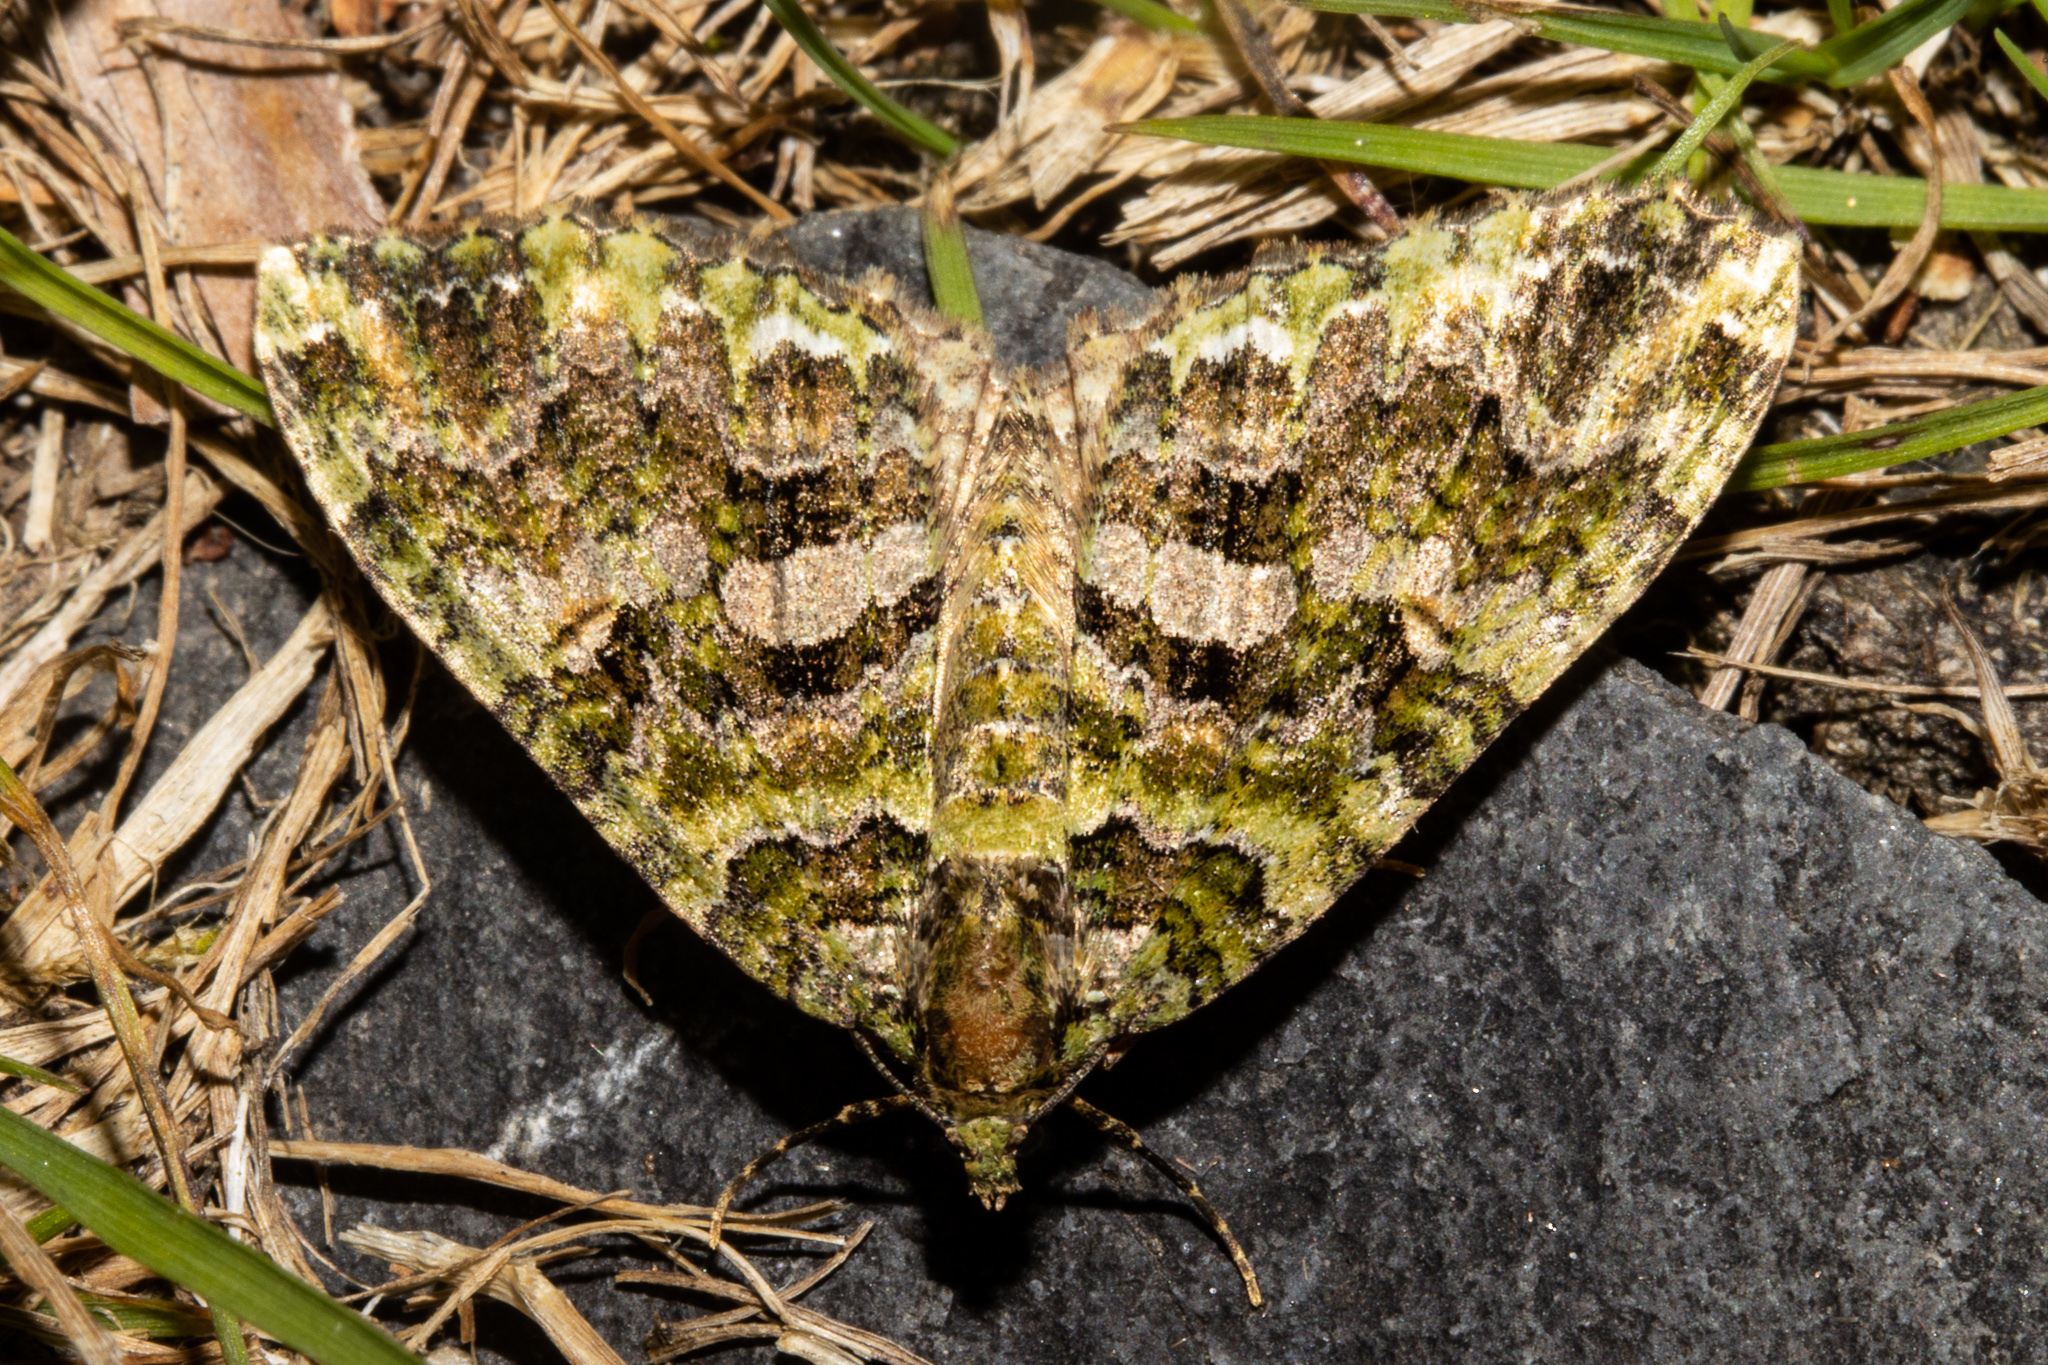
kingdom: Animalia
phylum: Arthropoda
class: Insecta
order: Lepidoptera
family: Geometridae
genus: Austrocidaria
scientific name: Austrocidaria similata
